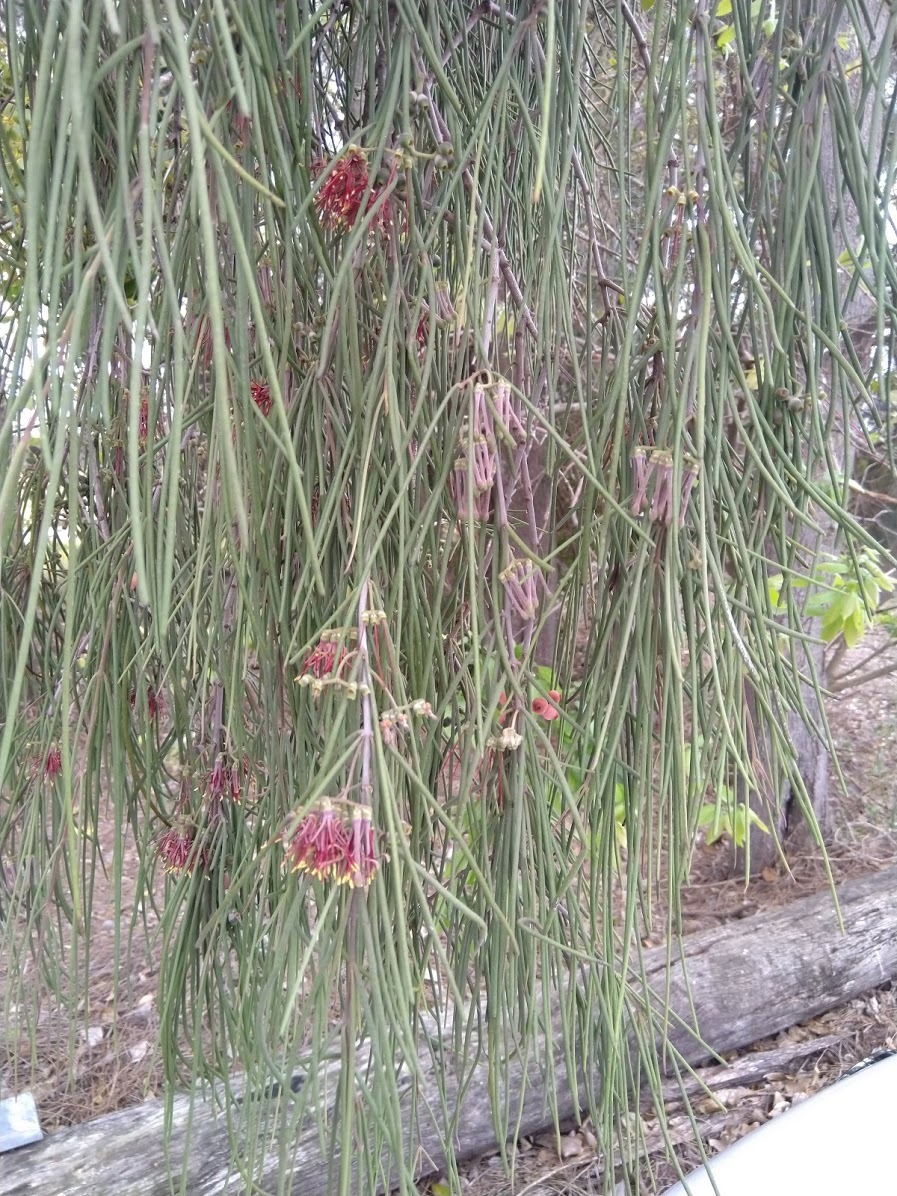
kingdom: Plantae
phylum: Tracheophyta
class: Magnoliopsida
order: Santalales
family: Loranthaceae
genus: Amyema
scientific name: Amyema cambagei
